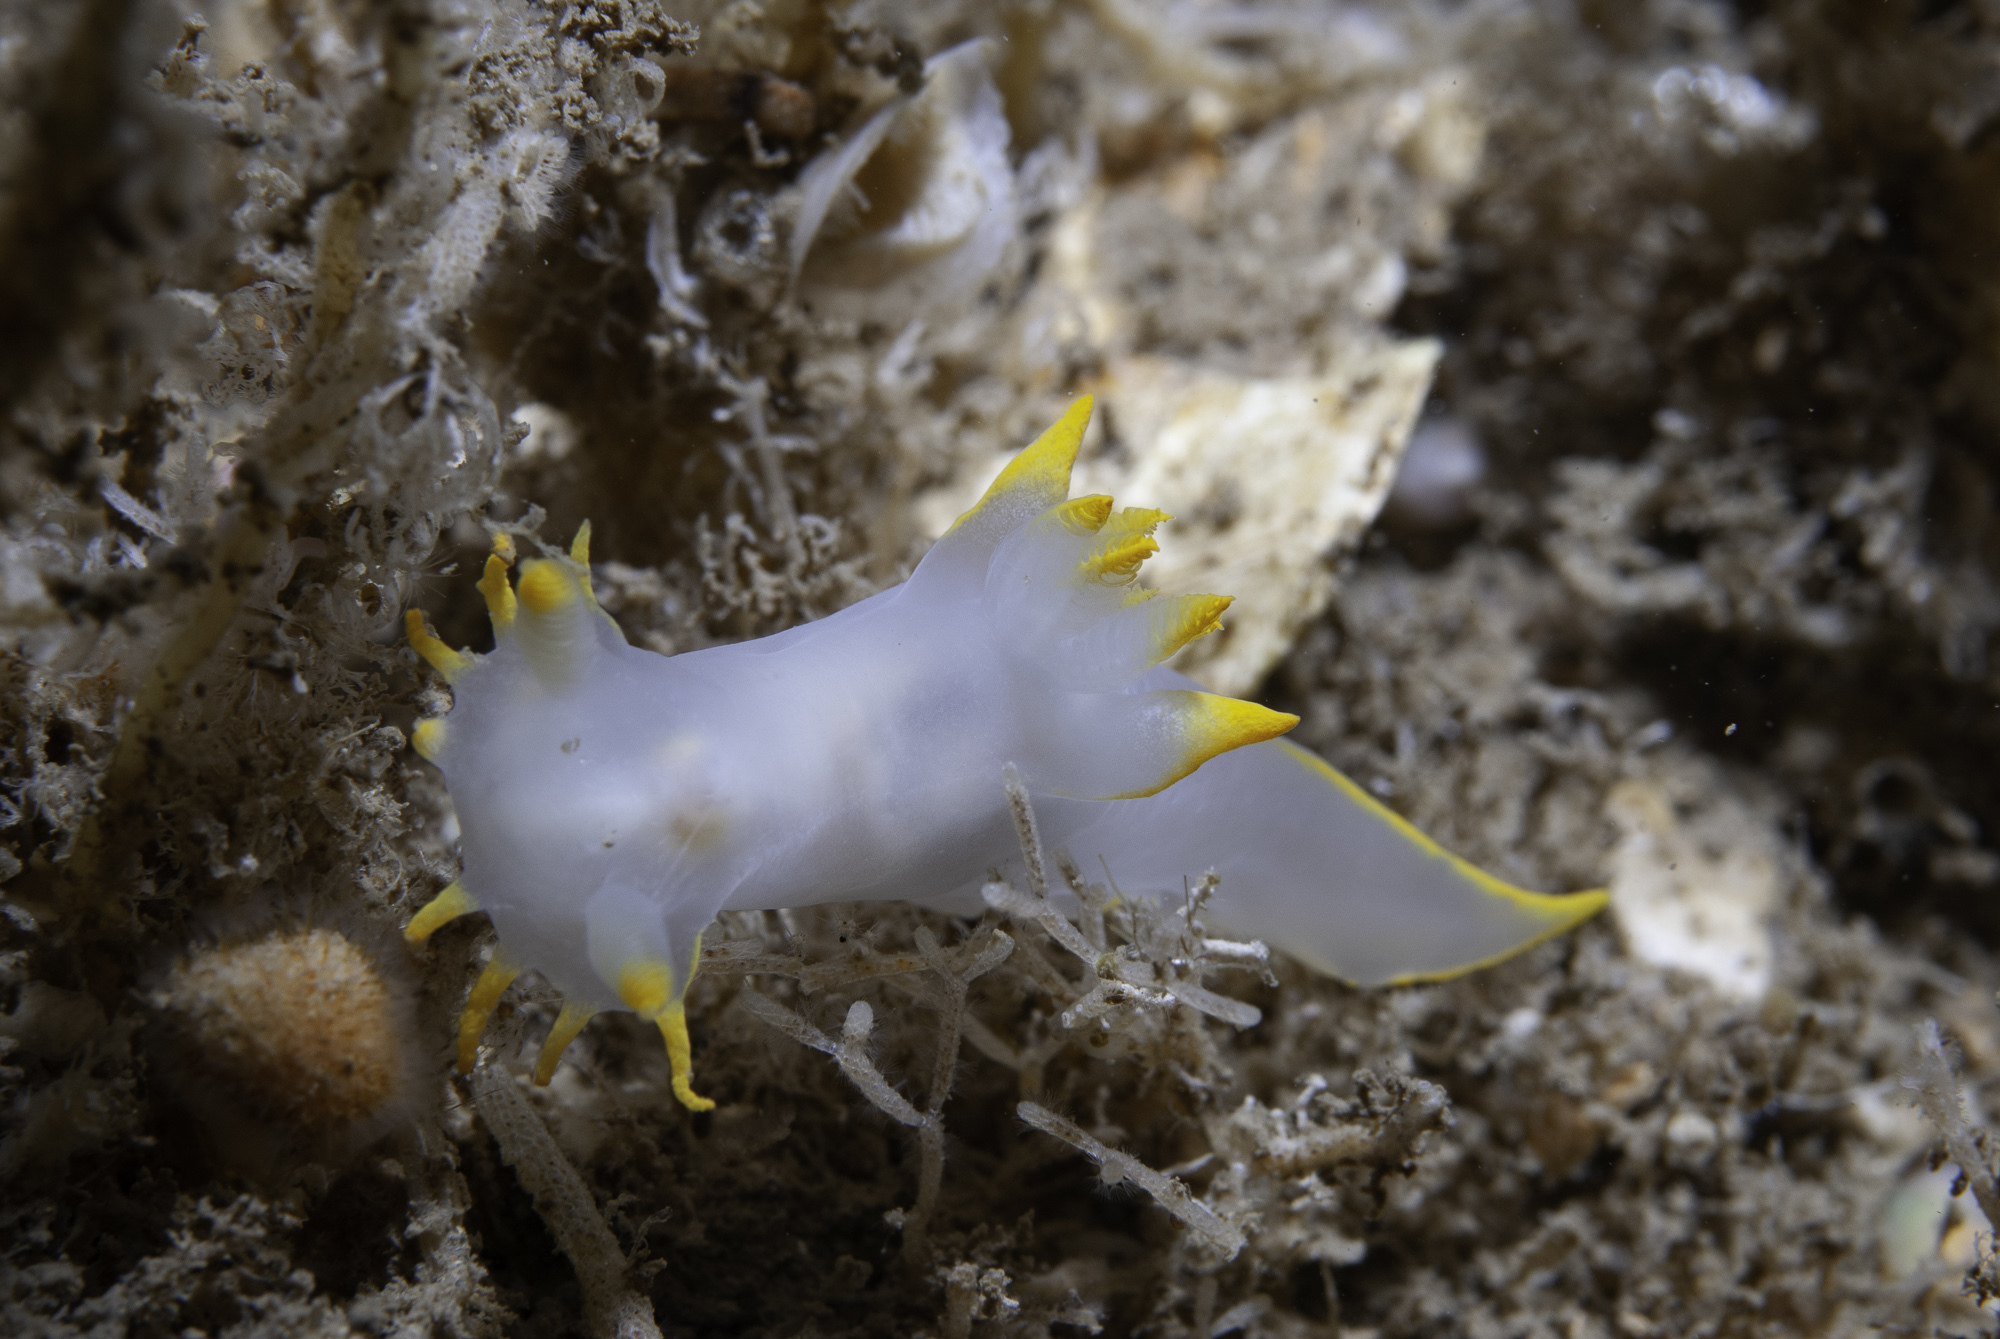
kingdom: Animalia
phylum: Mollusca
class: Gastropoda
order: Nudibranchia
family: Polyceridae
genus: Polycera
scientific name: Polycera faeroensis
